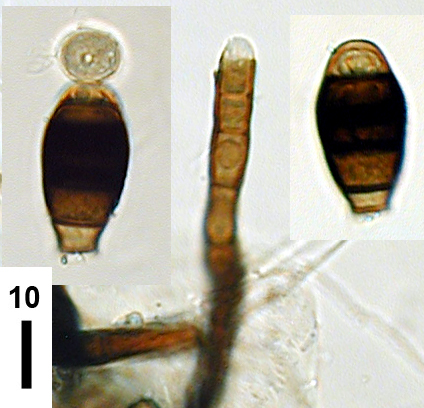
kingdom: Fungi
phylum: Ascomycota
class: Dothideomycetes
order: Pleosporales
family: Melanommataceae
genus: Phragmocephala
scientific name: Phragmocephala prolifera
